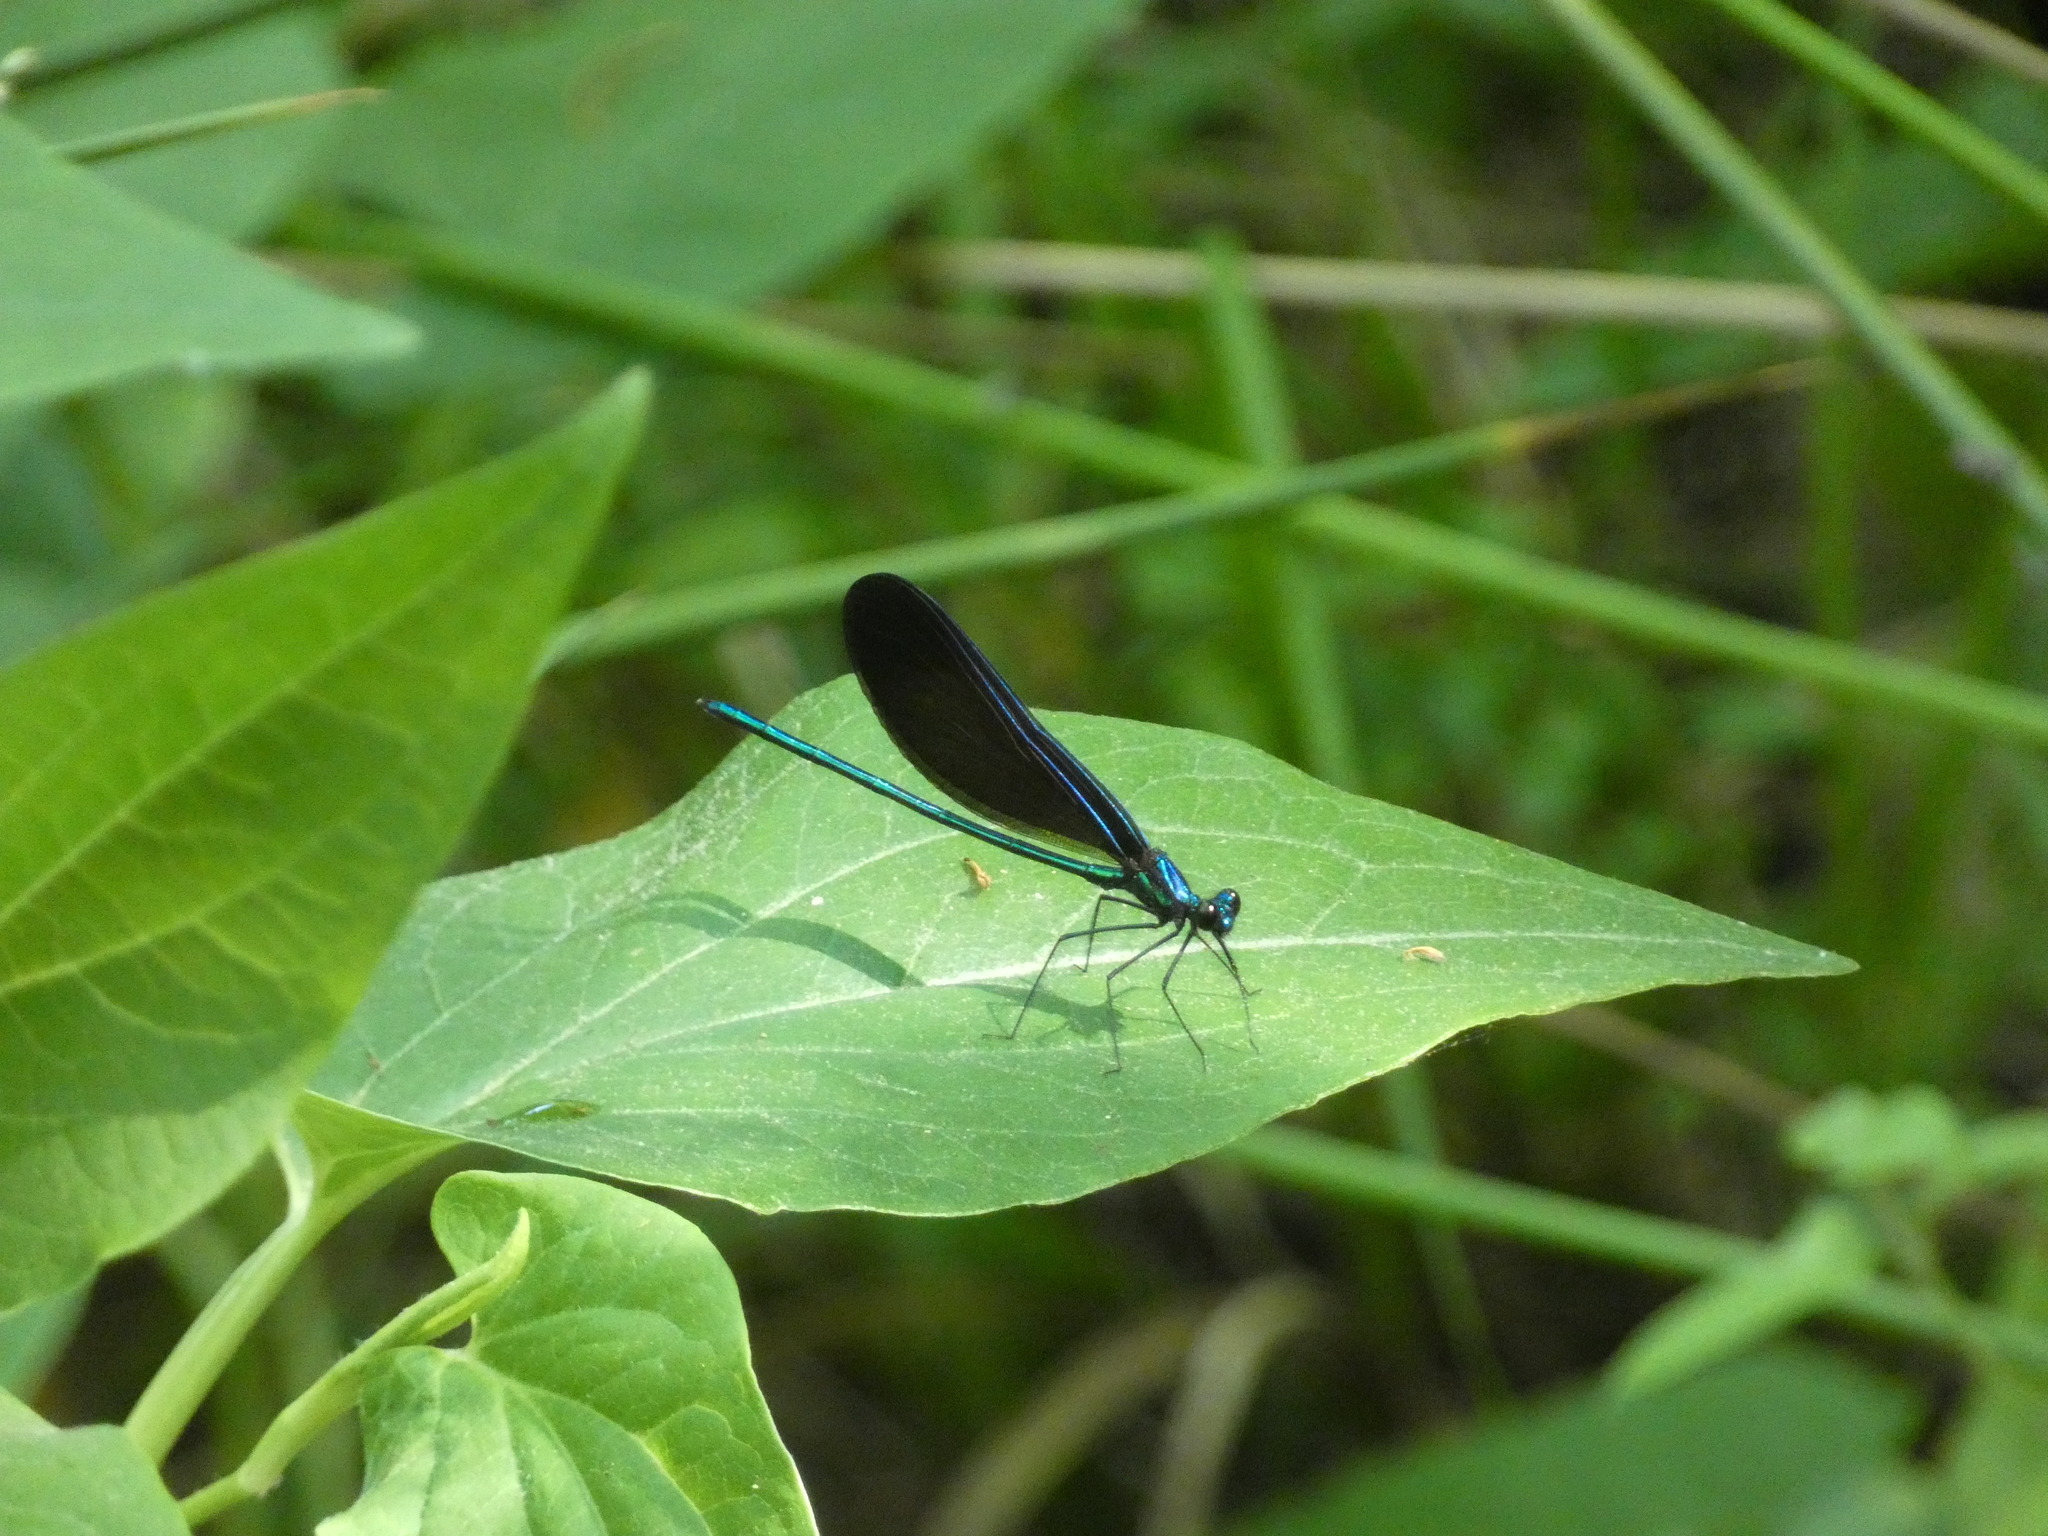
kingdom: Animalia
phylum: Arthropoda
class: Insecta
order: Odonata
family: Calopterygidae
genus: Calopteryx
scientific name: Calopteryx maculata
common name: Ebony jewelwing
